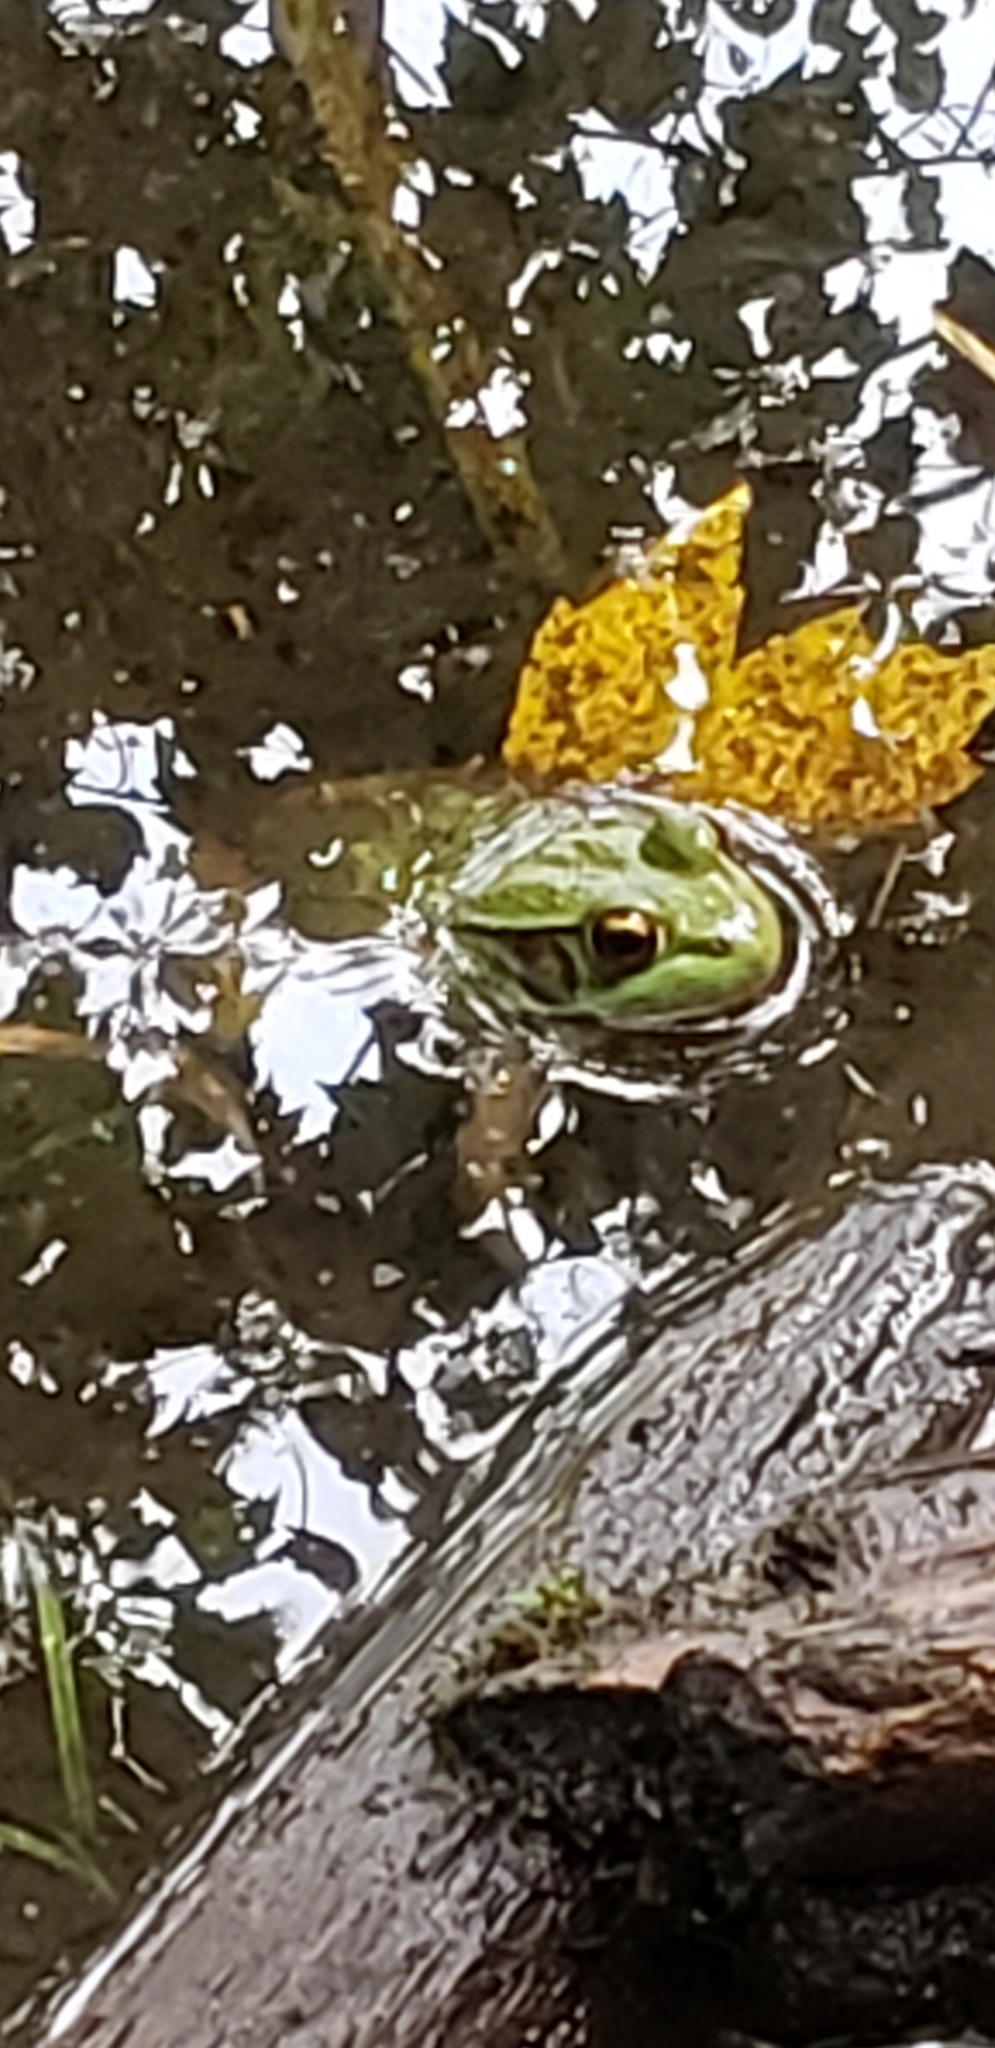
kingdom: Animalia
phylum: Chordata
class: Amphibia
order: Anura
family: Ranidae
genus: Lithobates
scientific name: Lithobates clamitans
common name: Green frog
